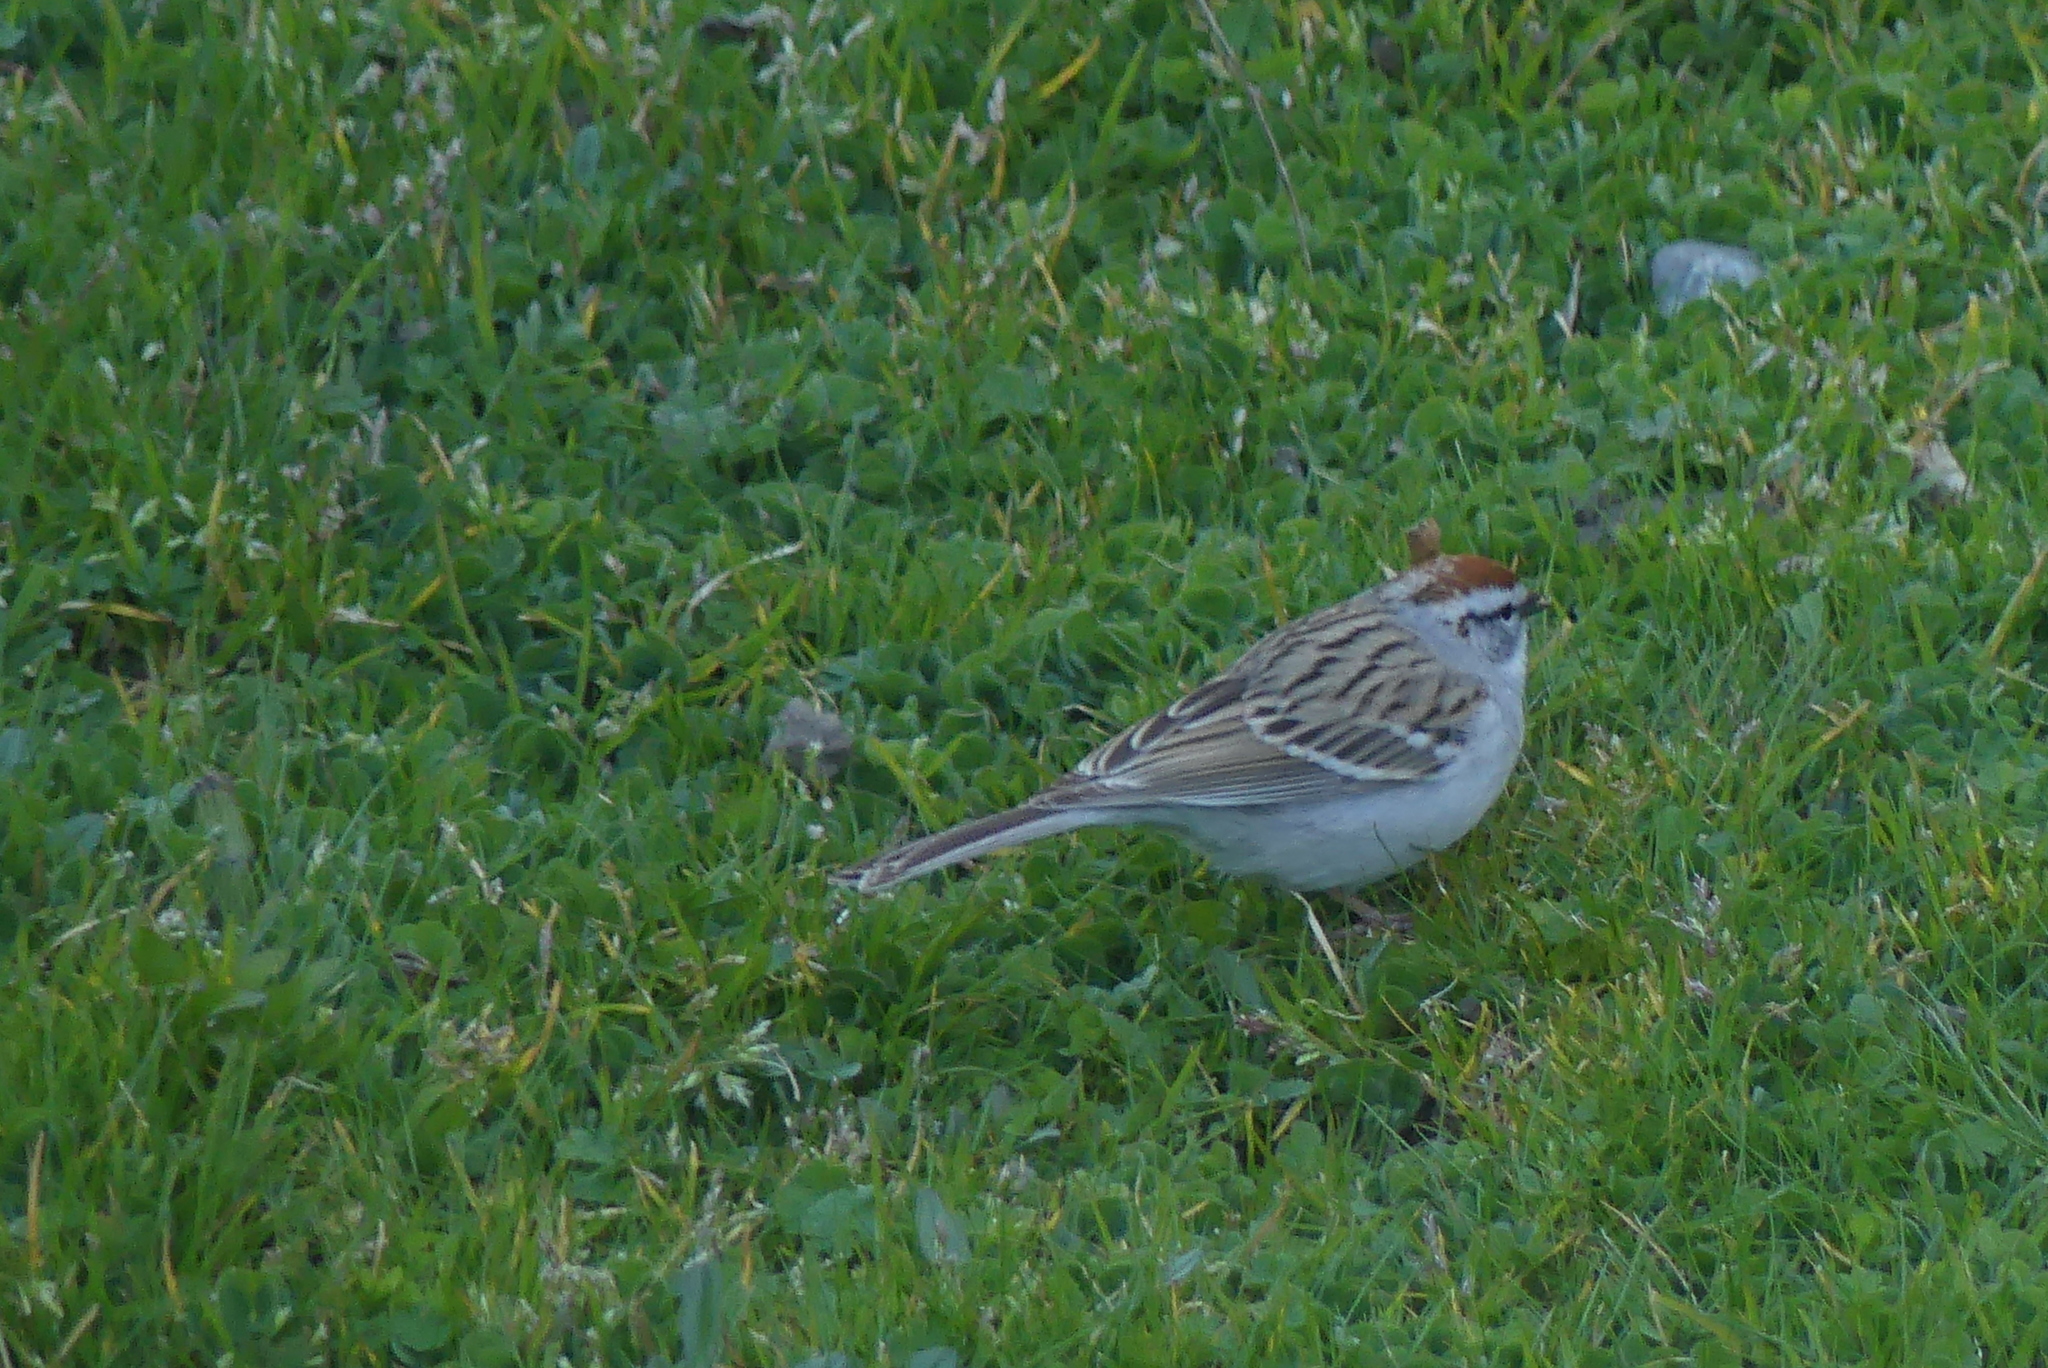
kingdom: Animalia
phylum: Chordata
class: Aves
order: Passeriformes
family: Passerellidae
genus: Spizella
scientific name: Spizella passerina
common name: Chipping sparrow
